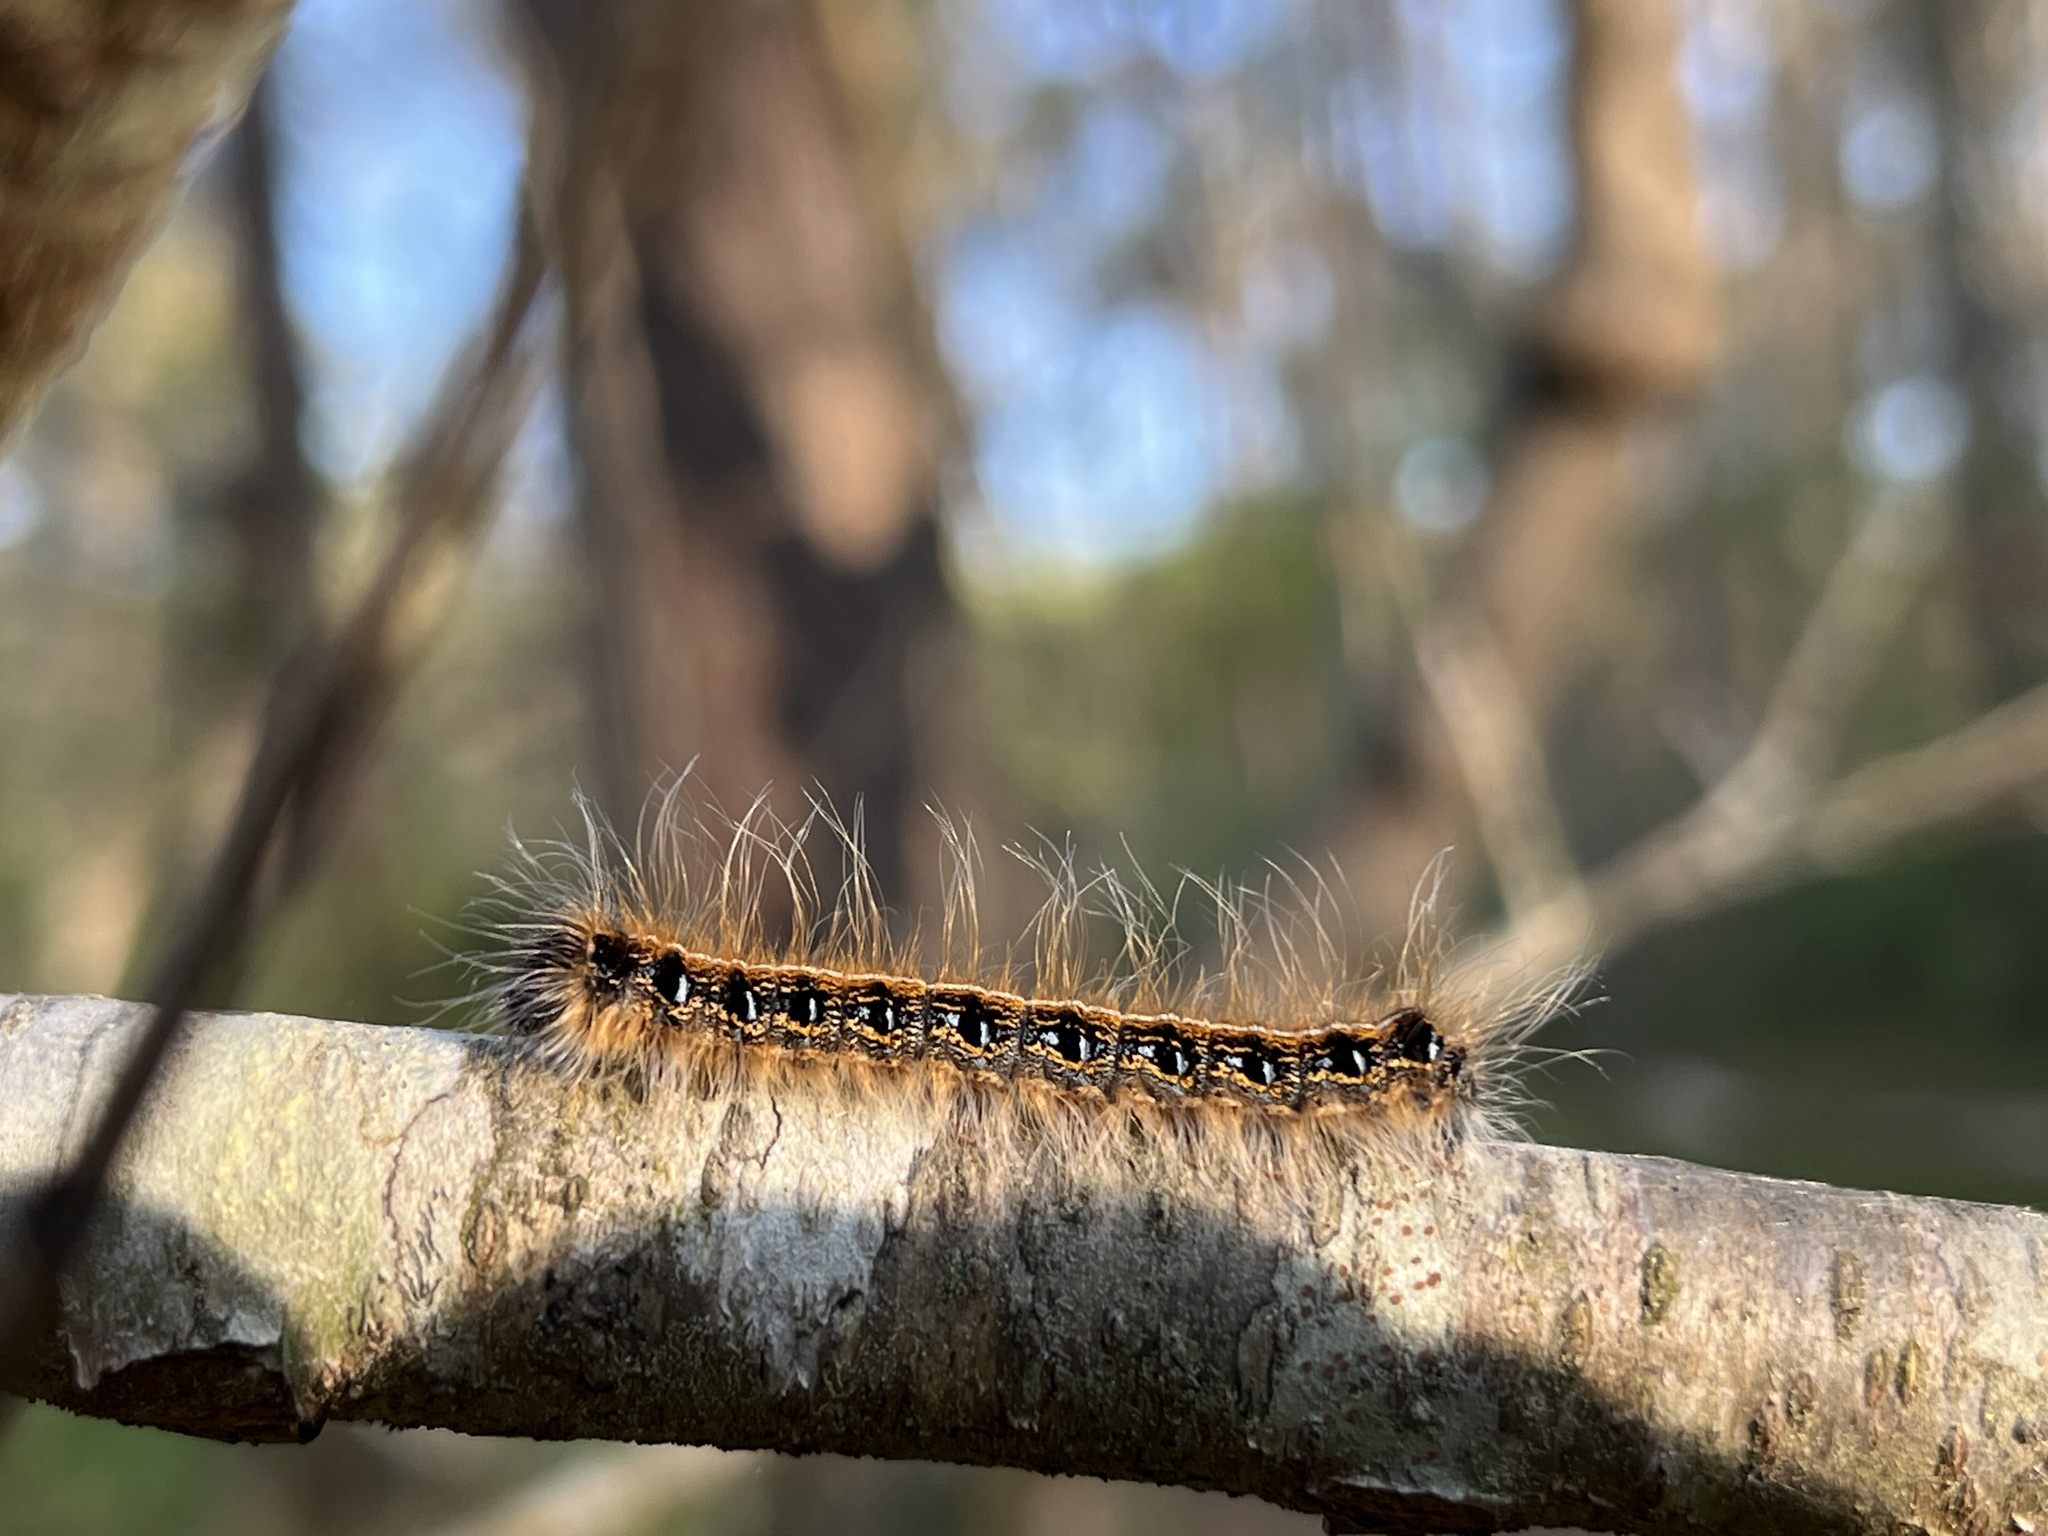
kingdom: Animalia
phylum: Arthropoda
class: Insecta
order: Lepidoptera
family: Lasiocampidae
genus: Malacosoma
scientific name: Malacosoma americana
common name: Eastern tent caterpillar moth
